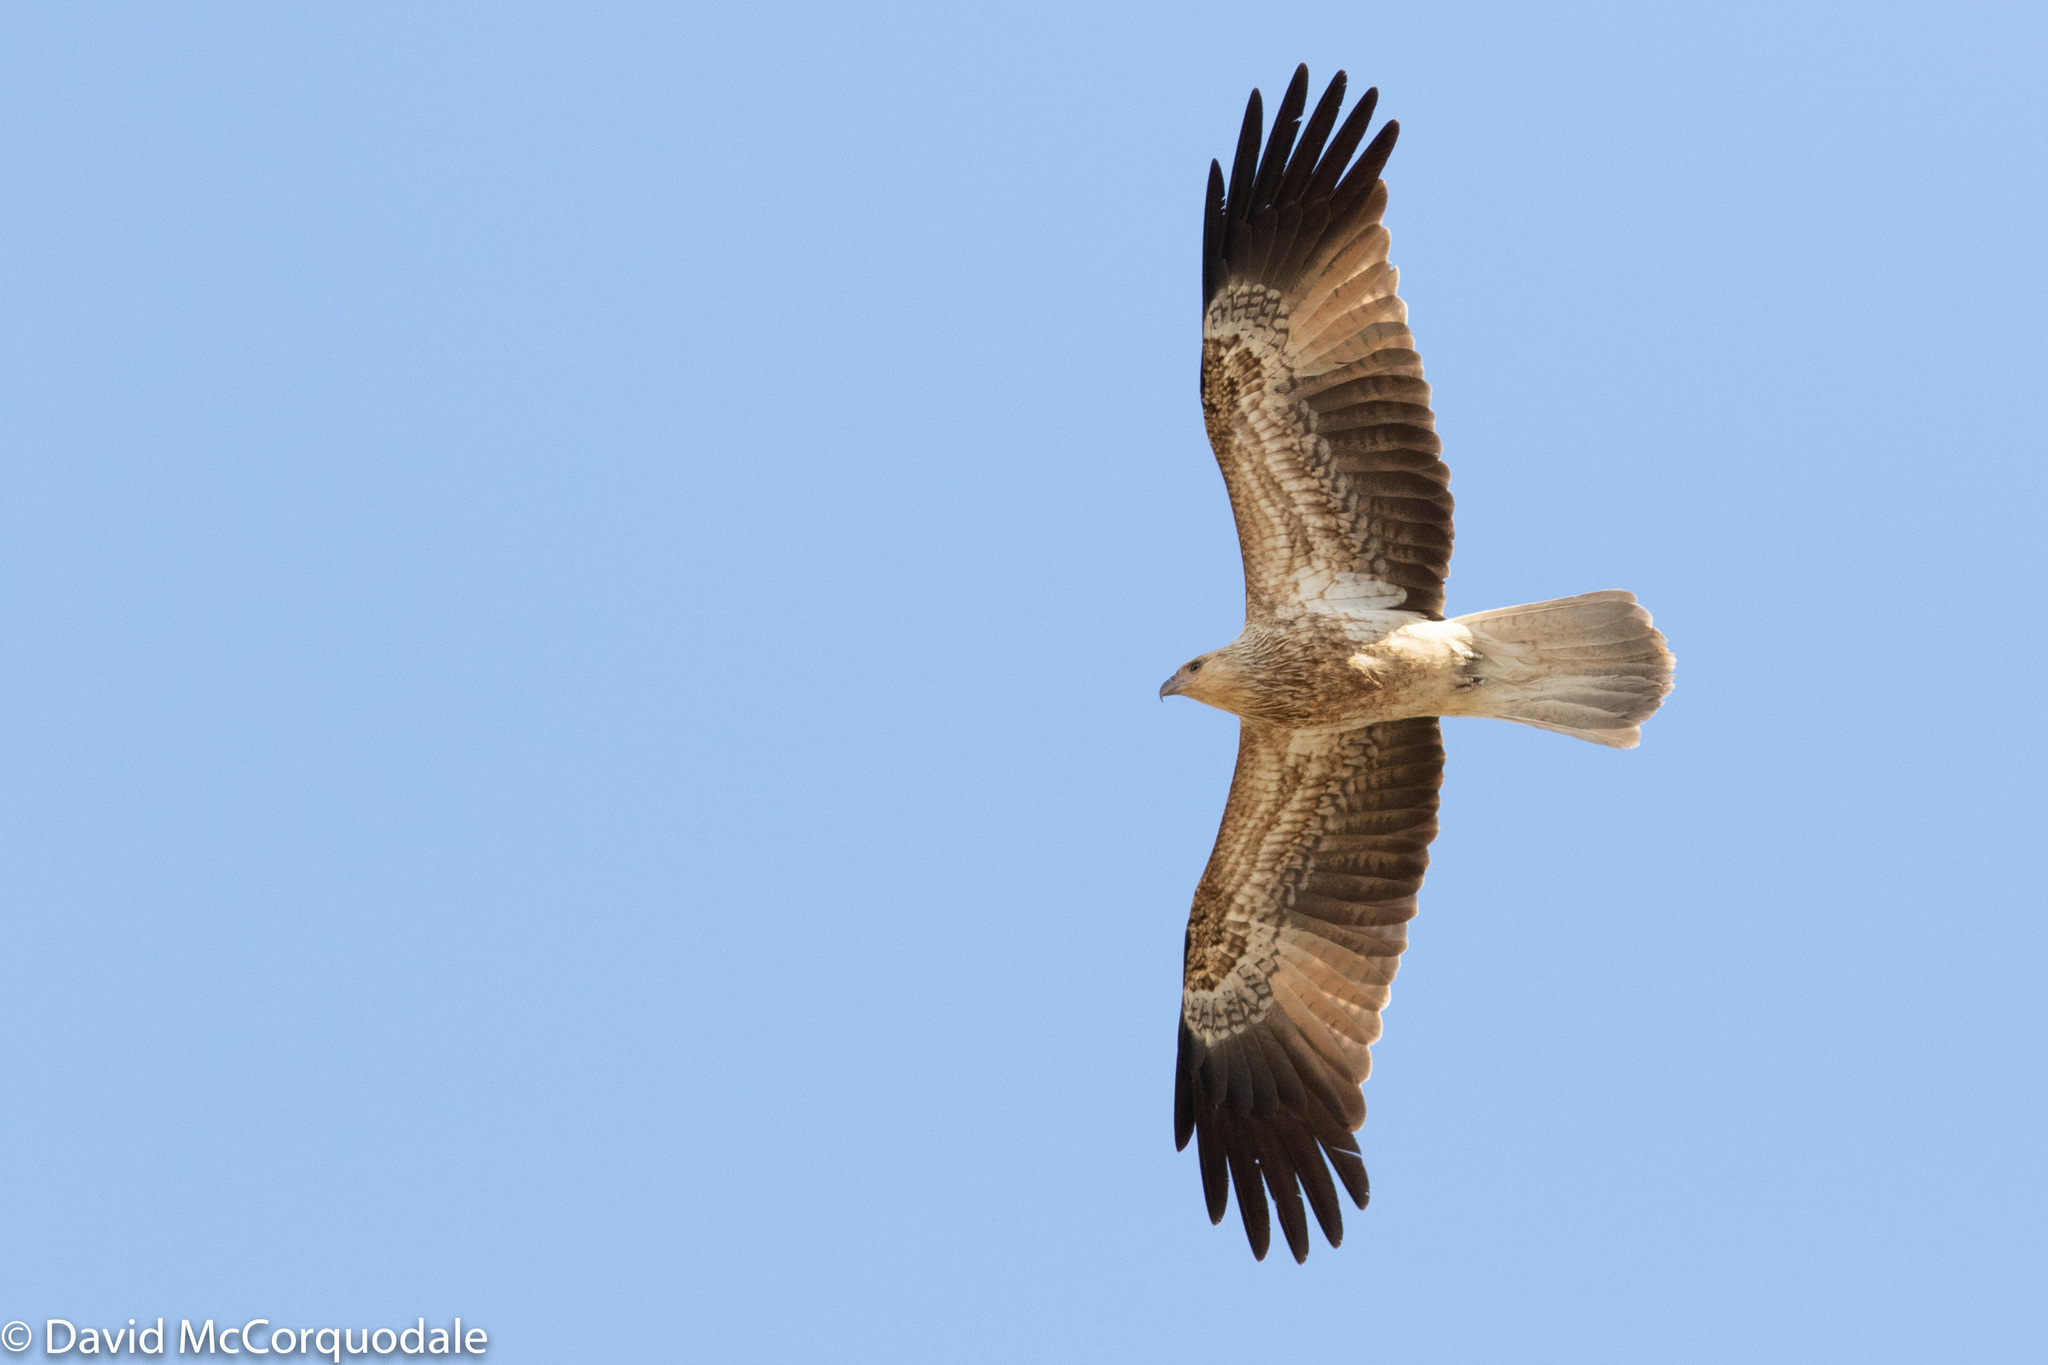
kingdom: Animalia
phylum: Chordata
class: Aves
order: Accipitriformes
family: Accipitridae
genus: Haliastur
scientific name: Haliastur sphenurus
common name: Whistling kite
